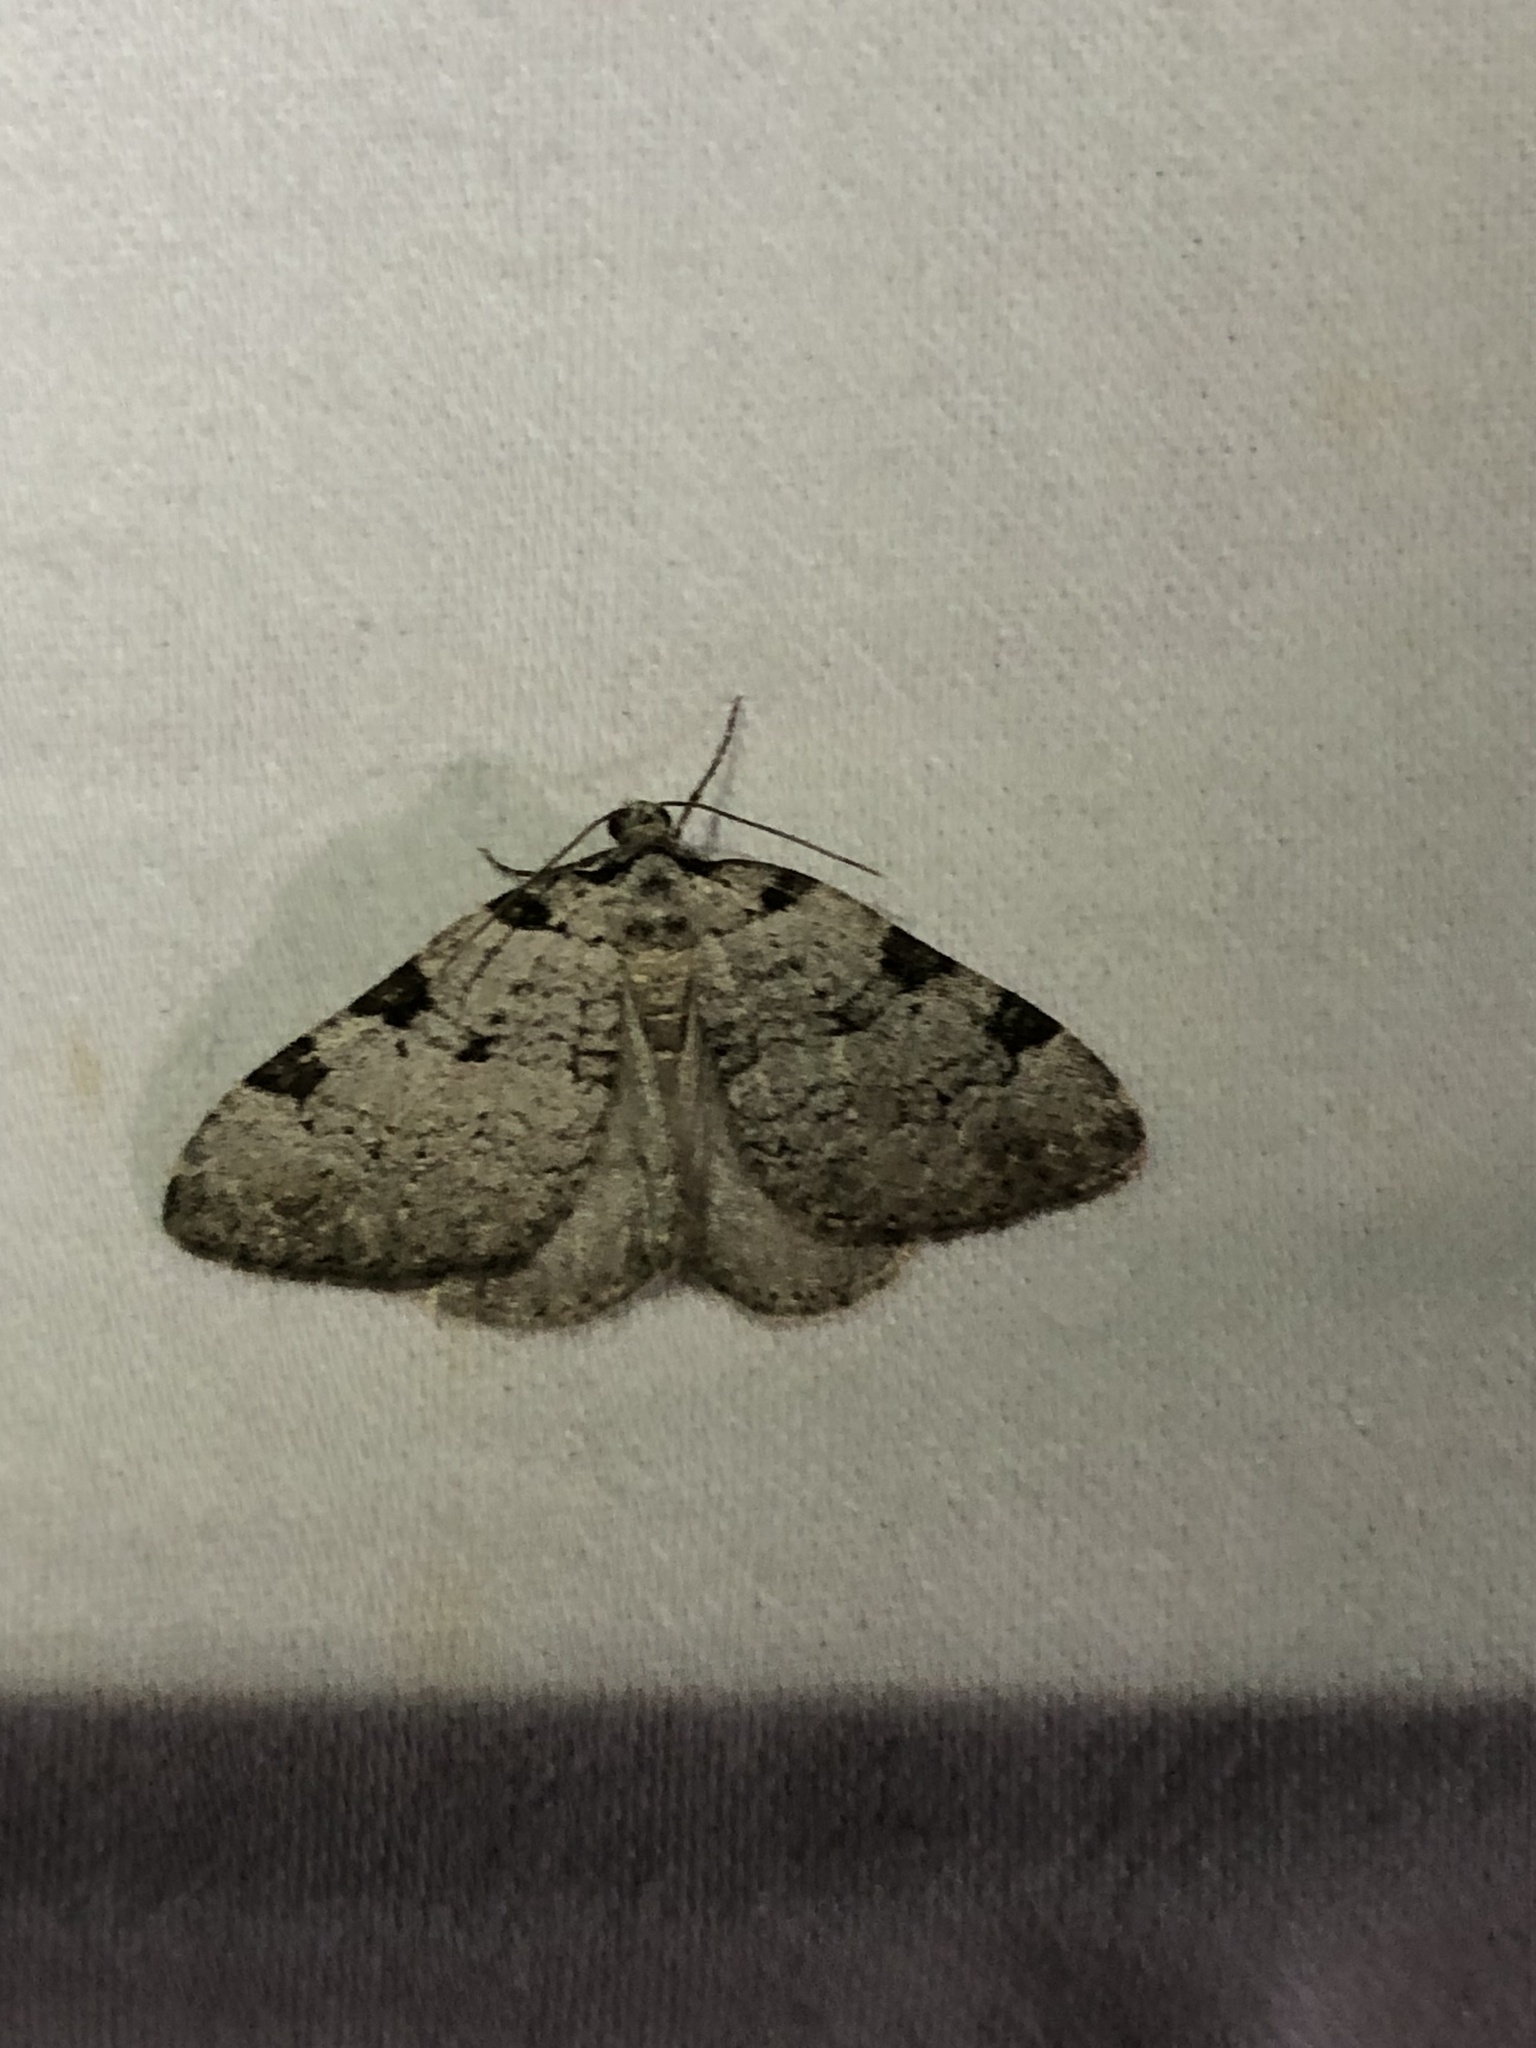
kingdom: Animalia
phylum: Arthropoda
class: Insecta
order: Lepidoptera
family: Geometridae
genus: Perizoma
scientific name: Perizoma costiguttata
